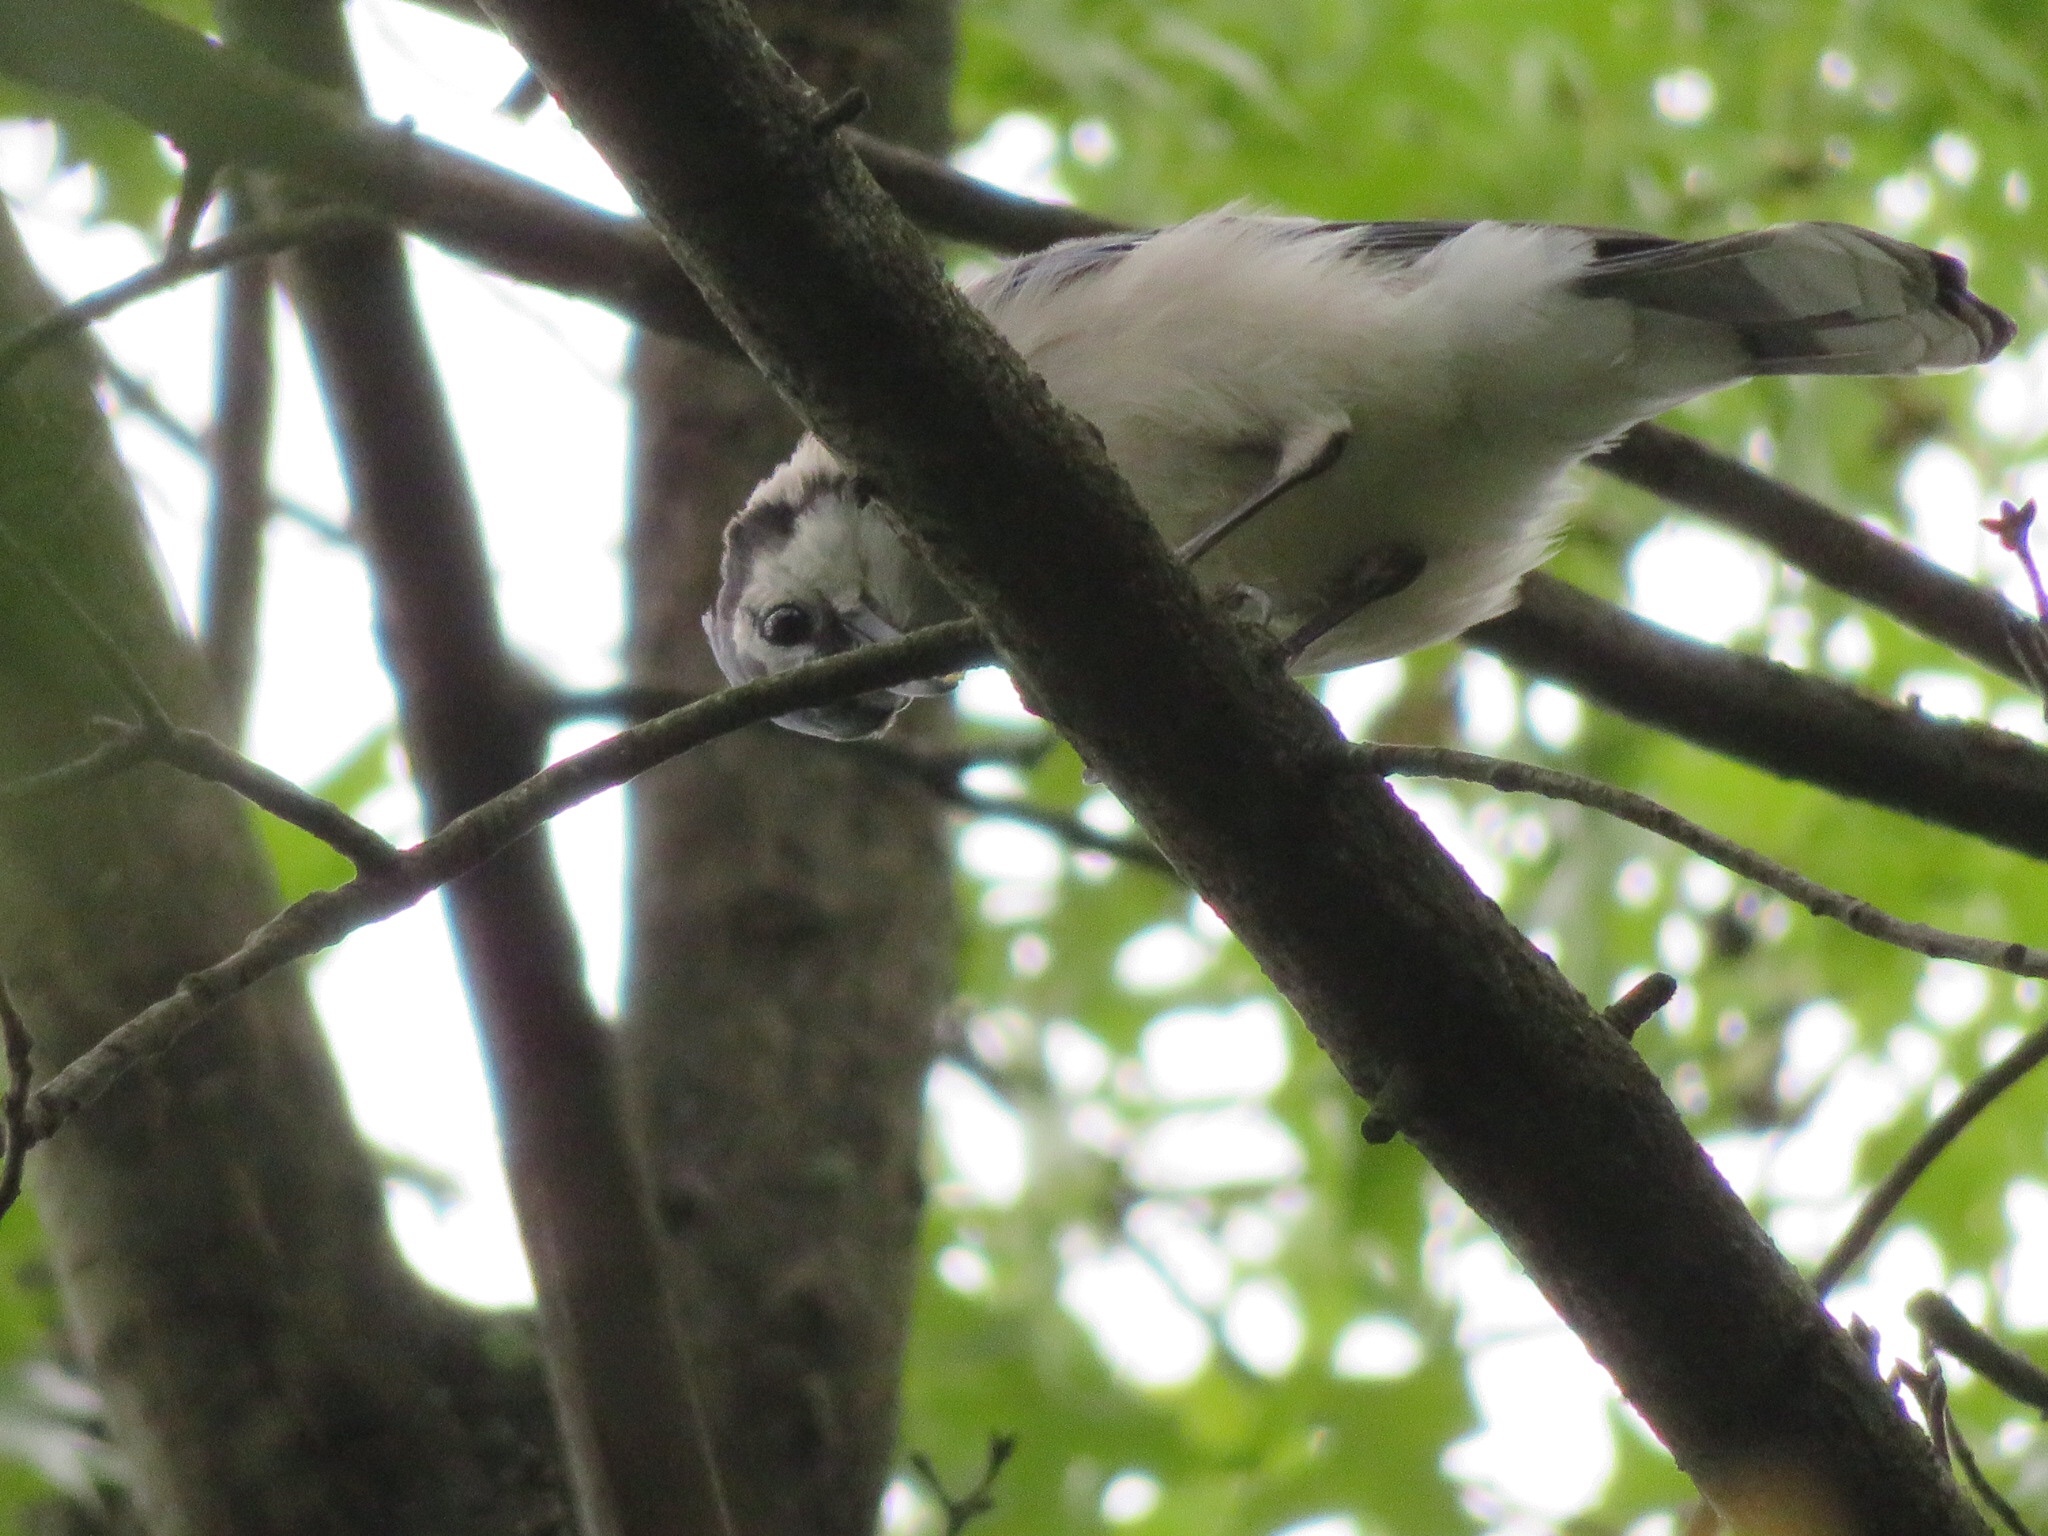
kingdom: Animalia
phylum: Chordata
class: Aves
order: Passeriformes
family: Corvidae
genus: Cyanocitta
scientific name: Cyanocitta cristata
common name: Blue jay
